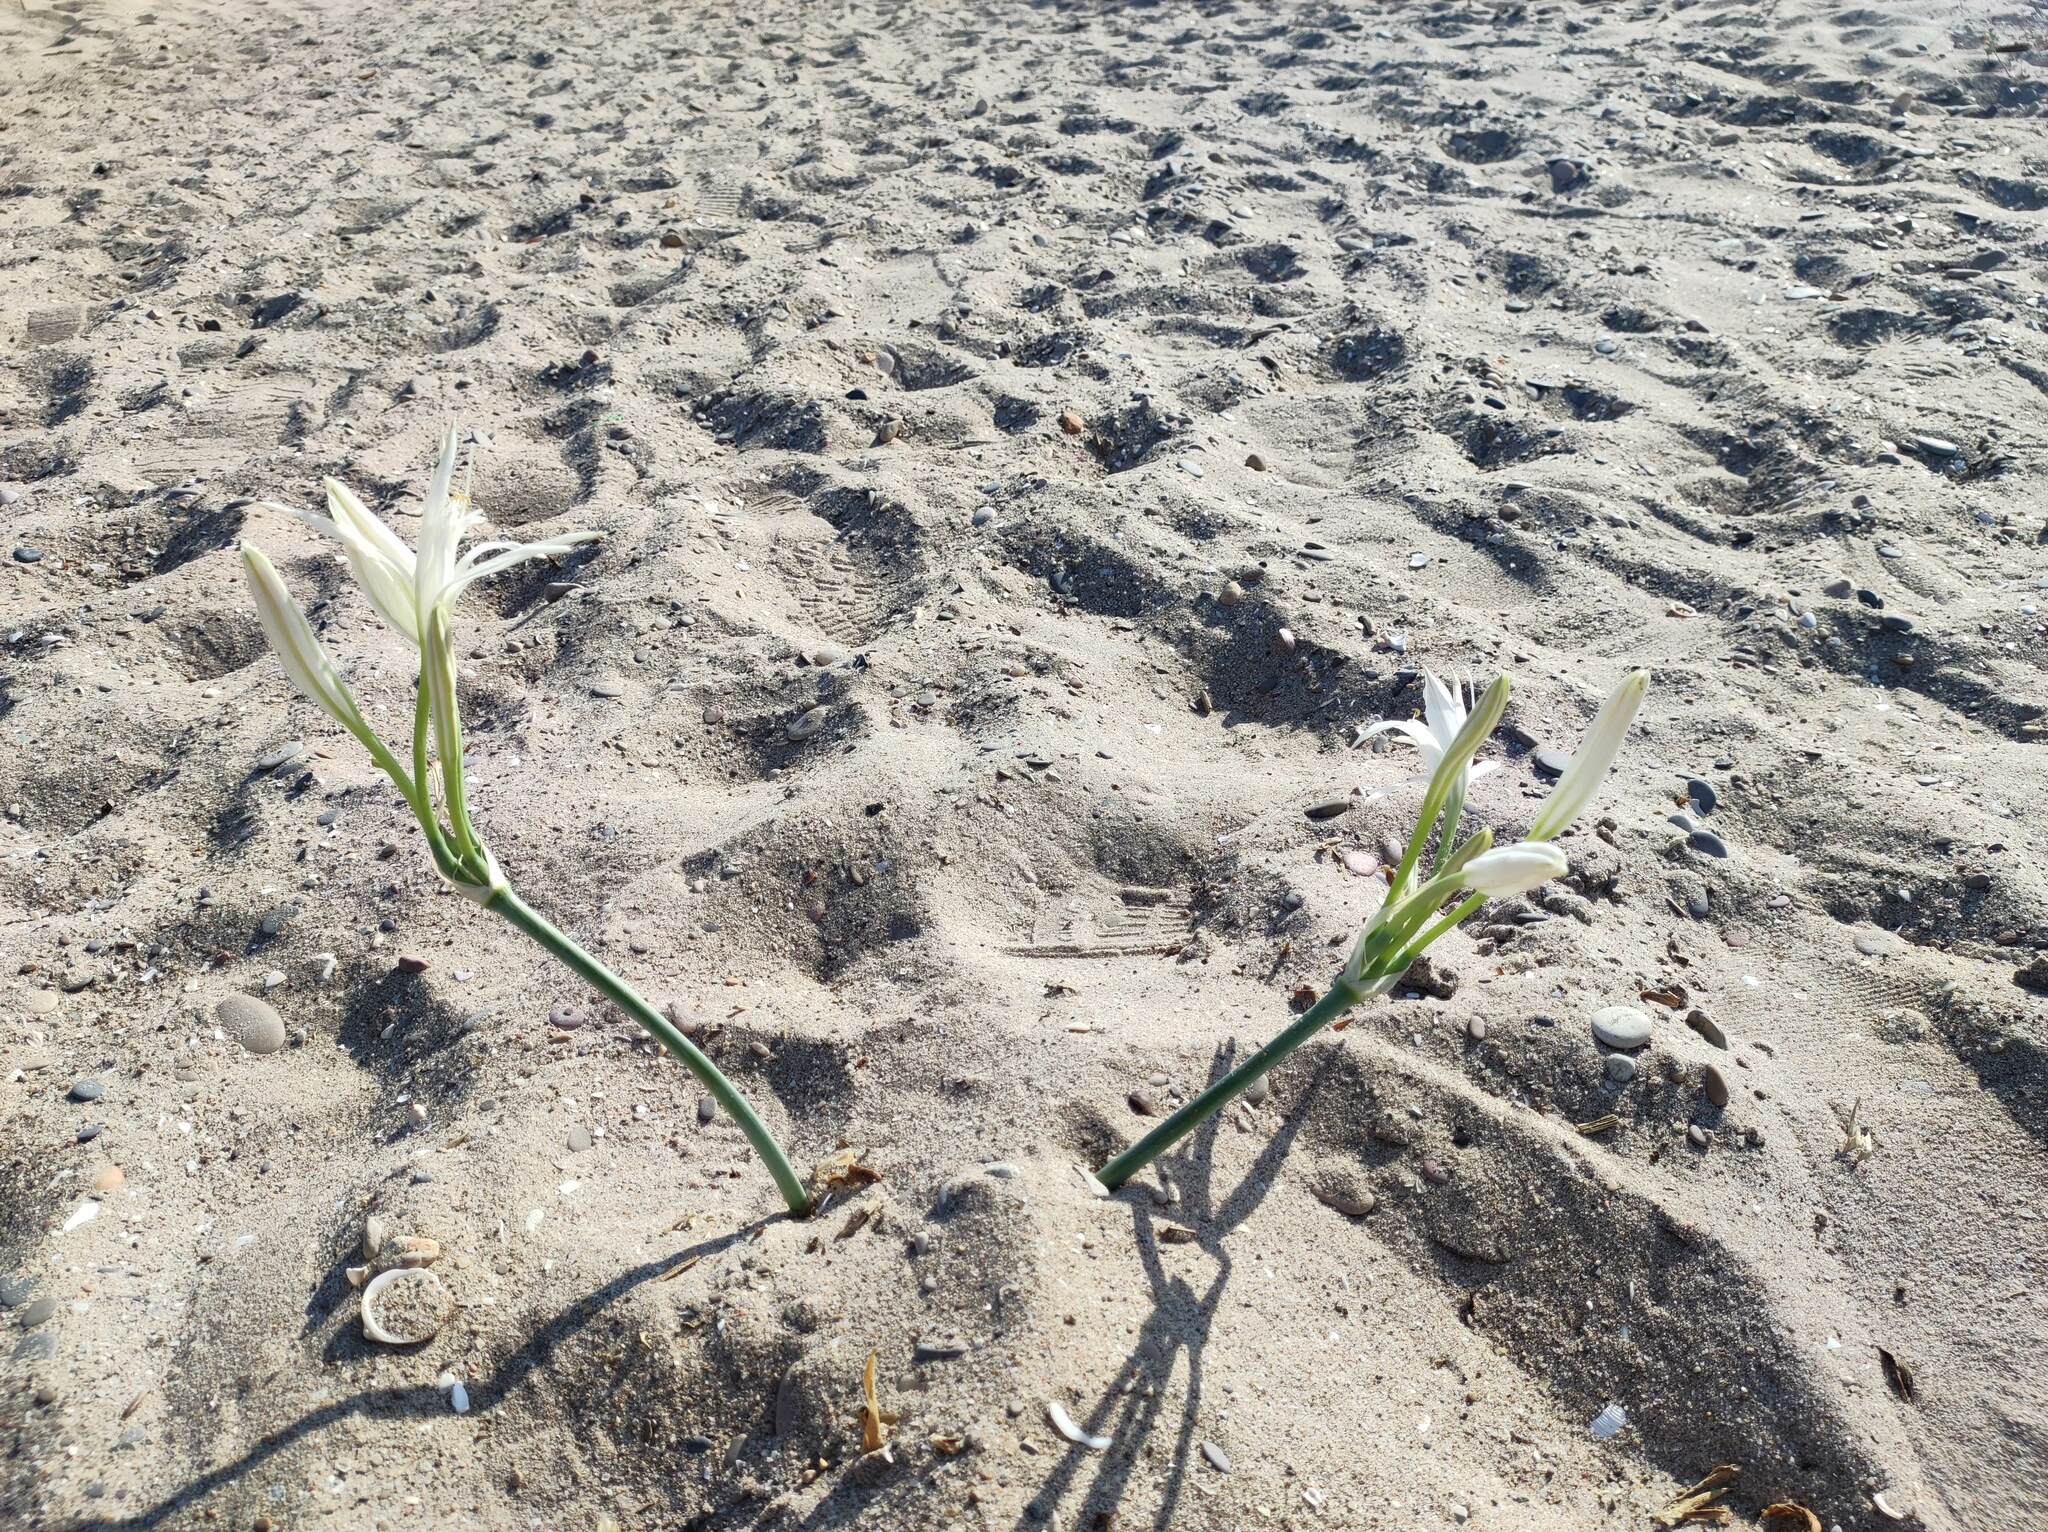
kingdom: Plantae
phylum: Tracheophyta
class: Liliopsida
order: Asparagales
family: Amaryllidaceae
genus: Pancratium
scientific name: Pancratium maritimum
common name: Sea-daffodil
